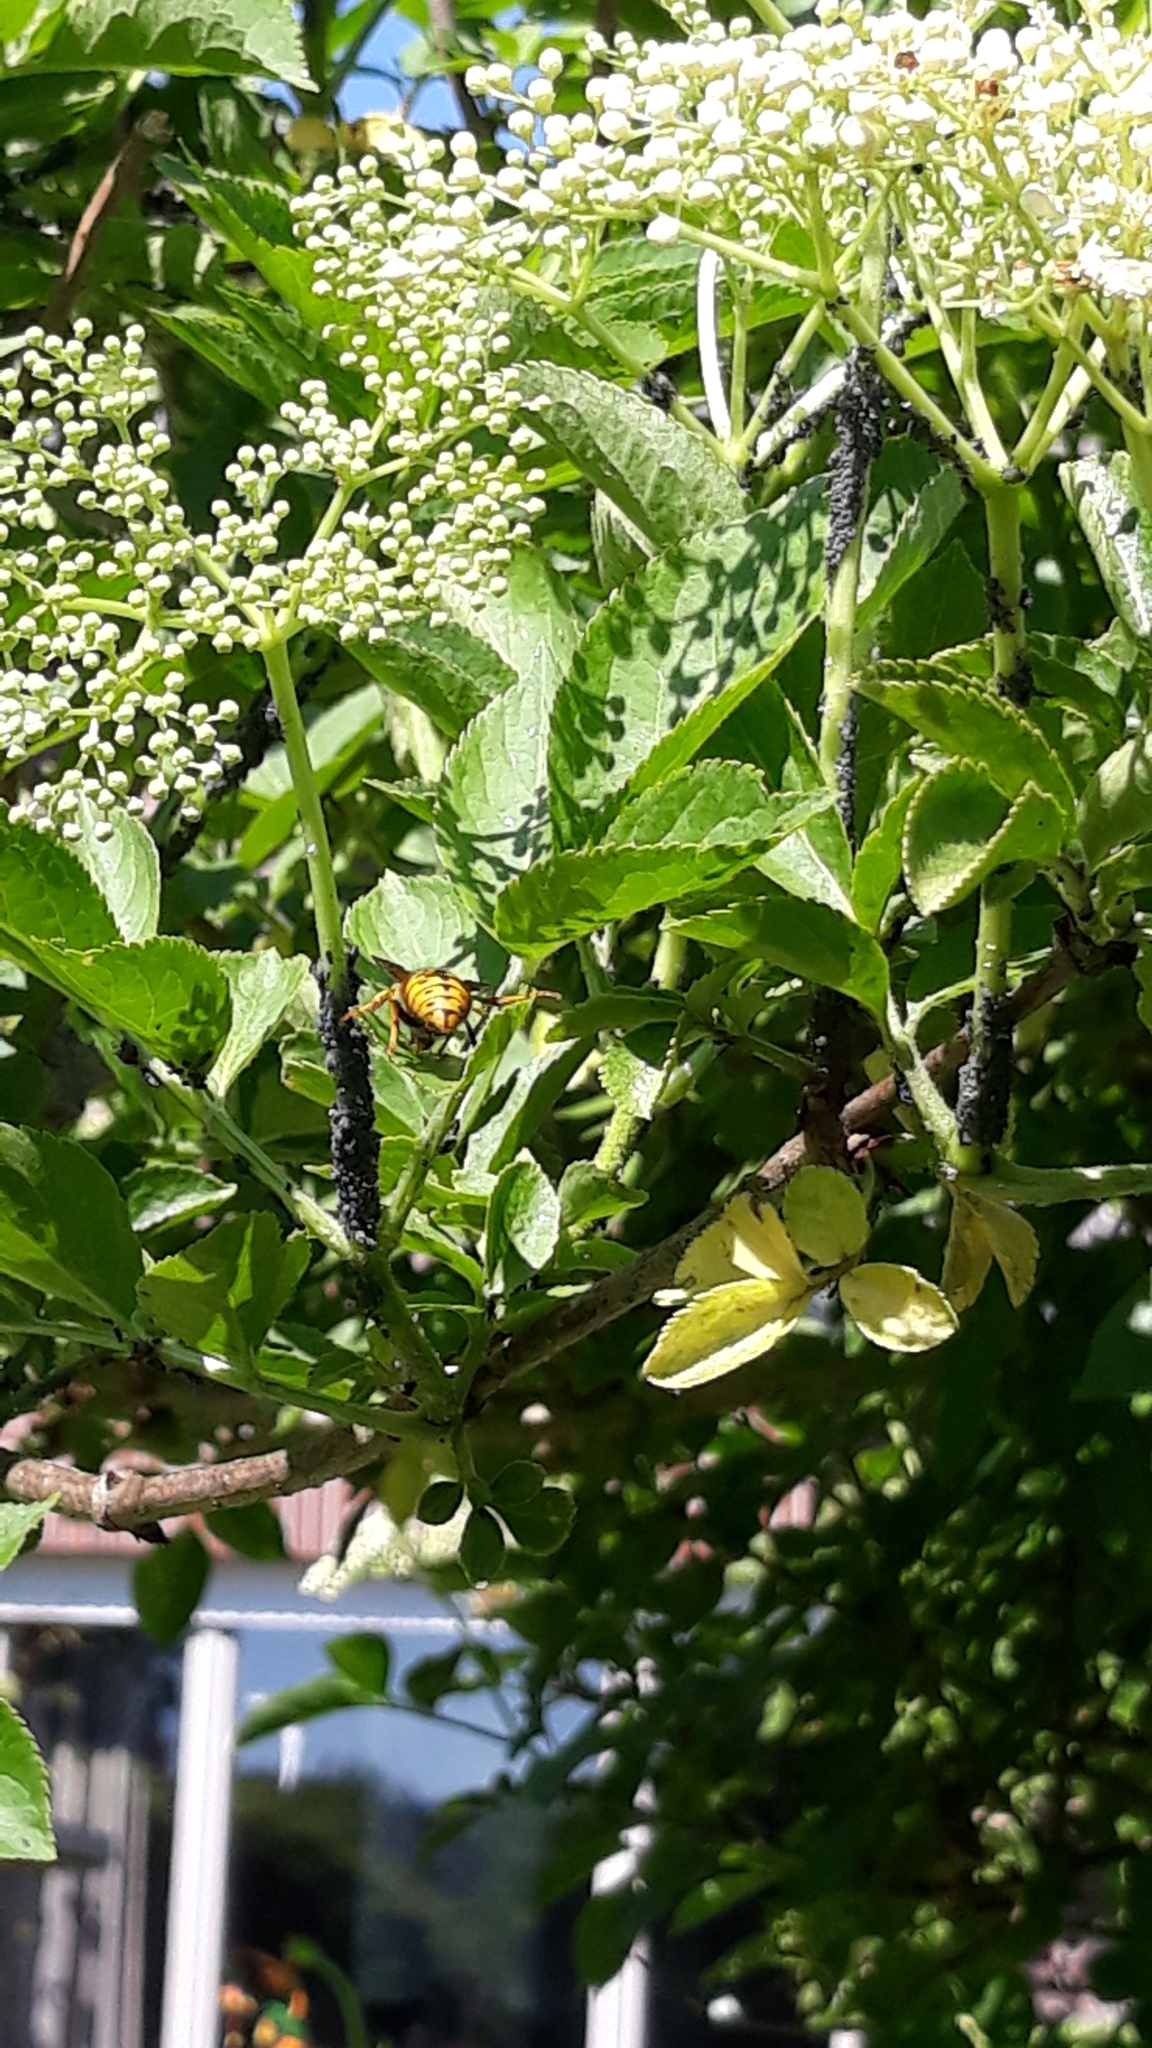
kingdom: Animalia
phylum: Arthropoda
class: Insecta
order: Hymenoptera
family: Vespidae
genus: Vespula
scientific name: Vespula germanica
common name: German wasp
